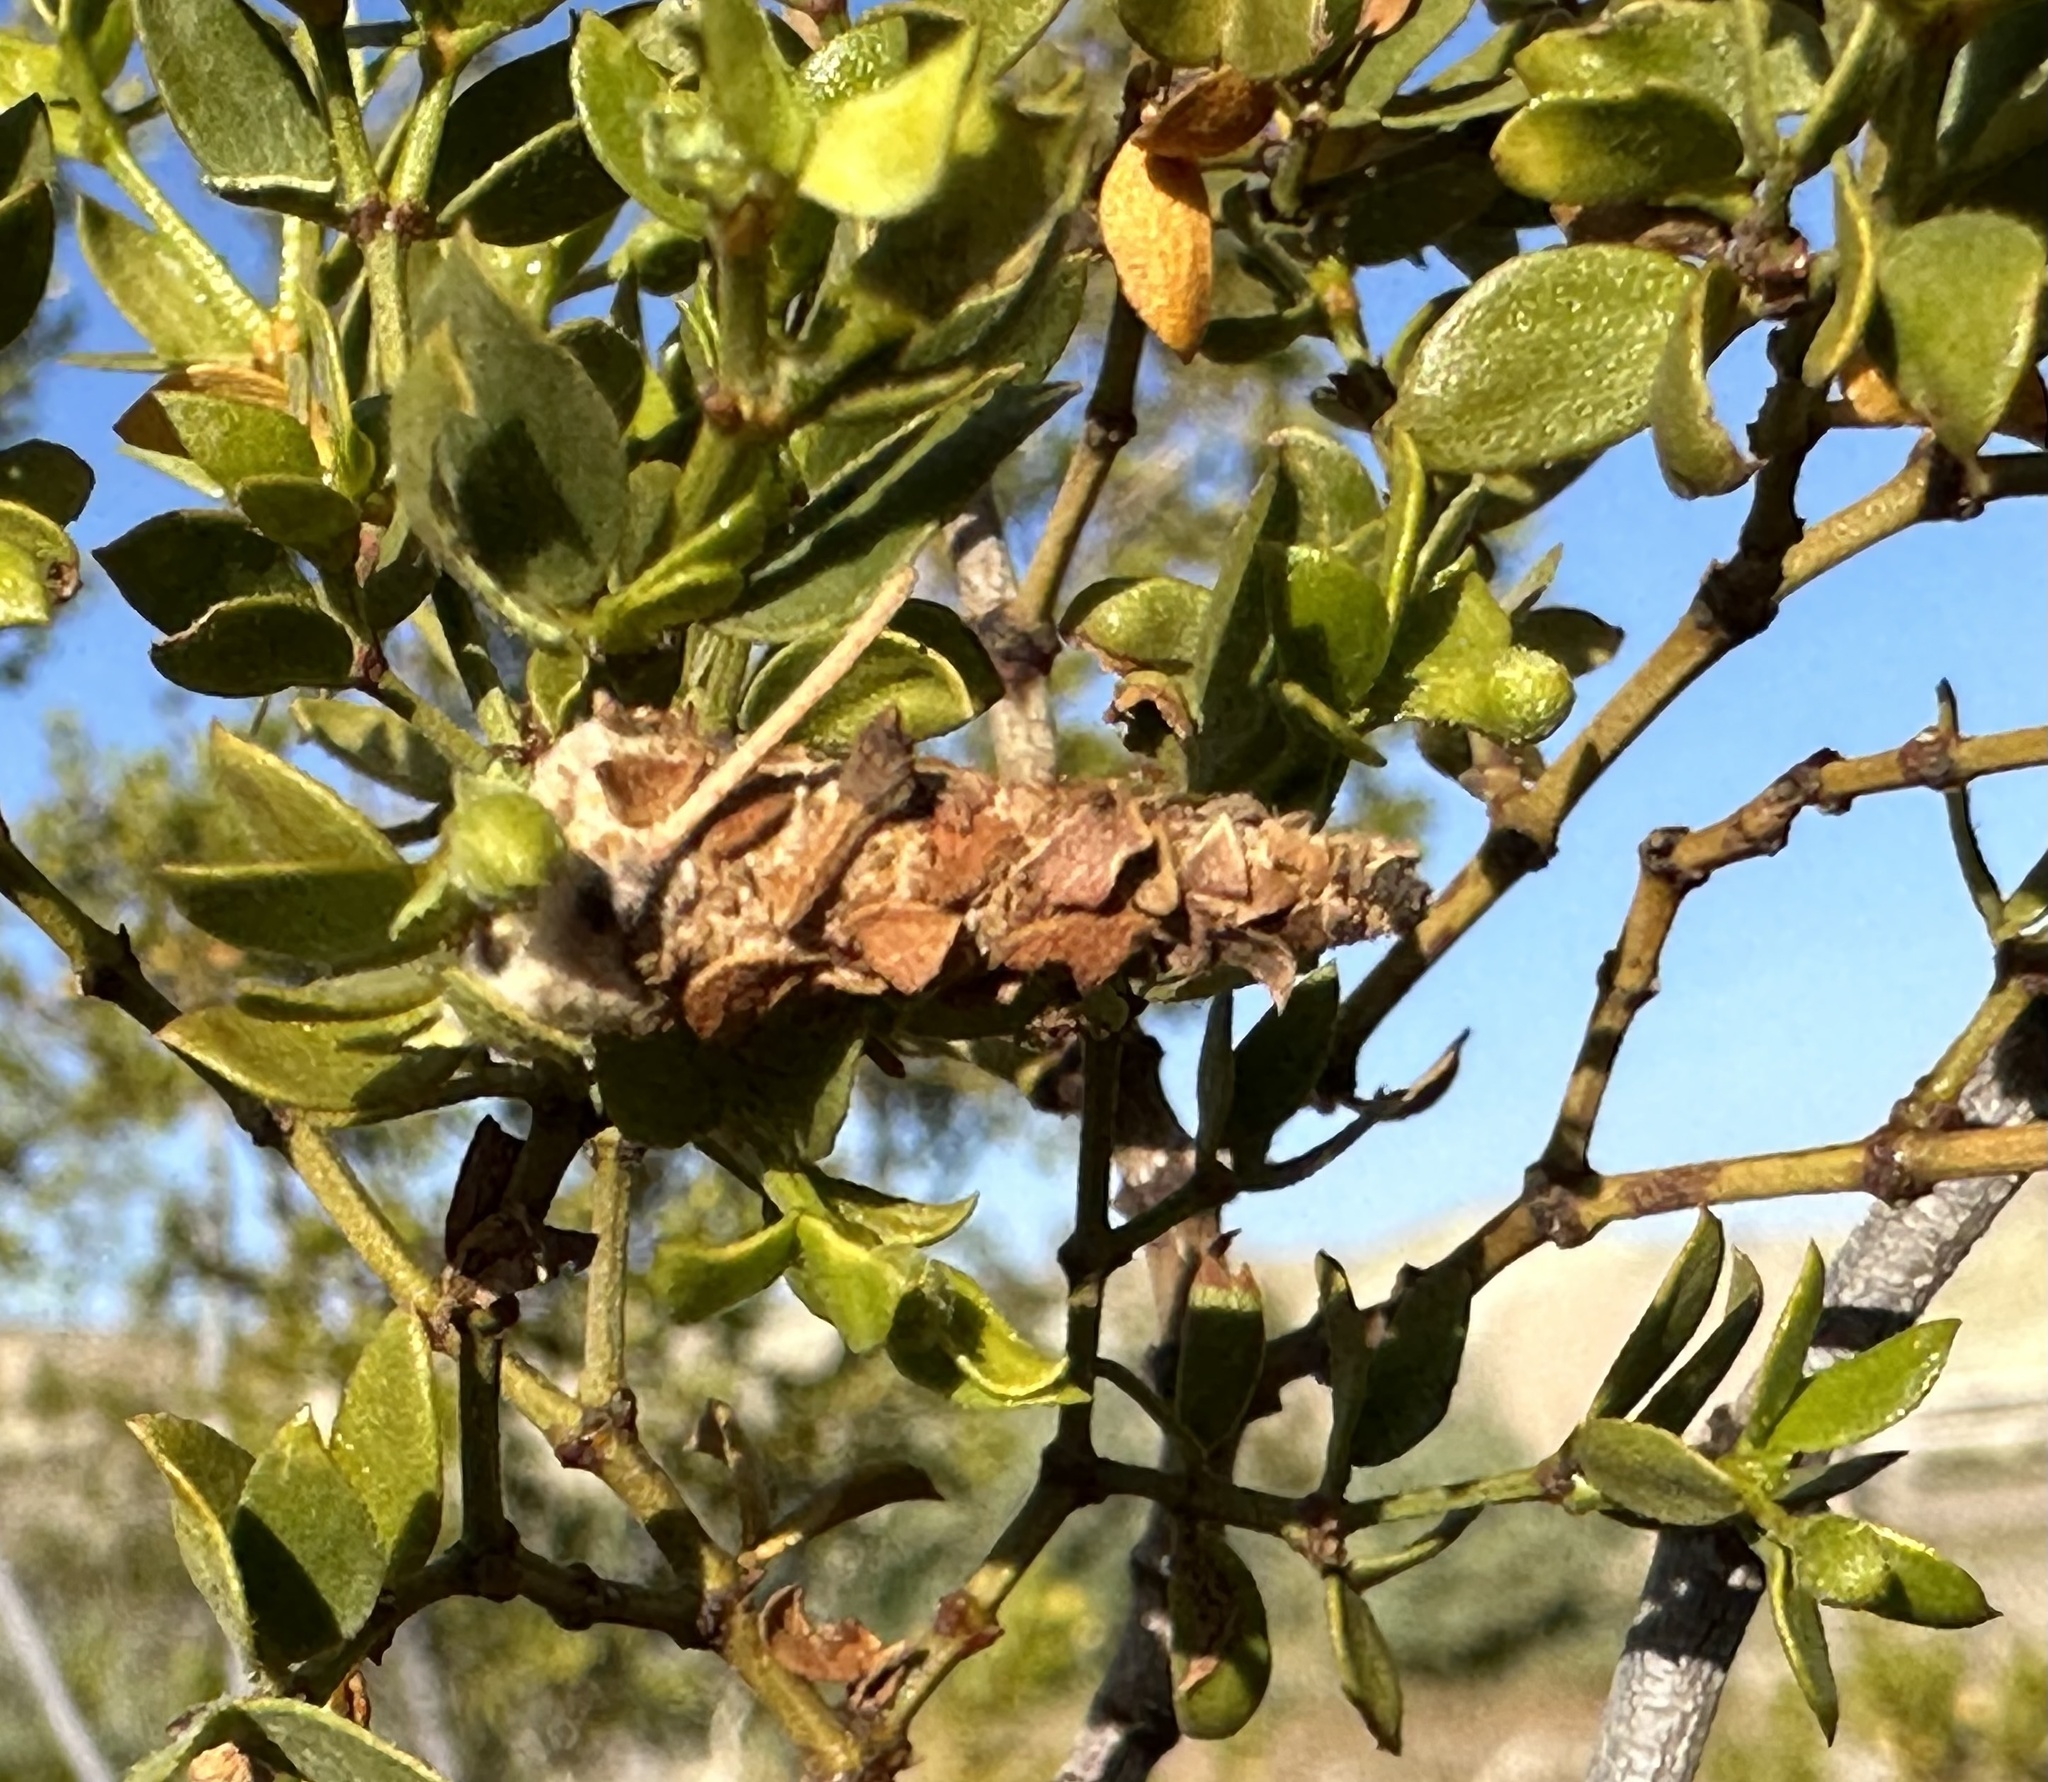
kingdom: Animalia
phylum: Arthropoda
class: Insecta
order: Lepidoptera
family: Psychidae
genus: Thyridopteryx
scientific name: Thyridopteryx meadii
